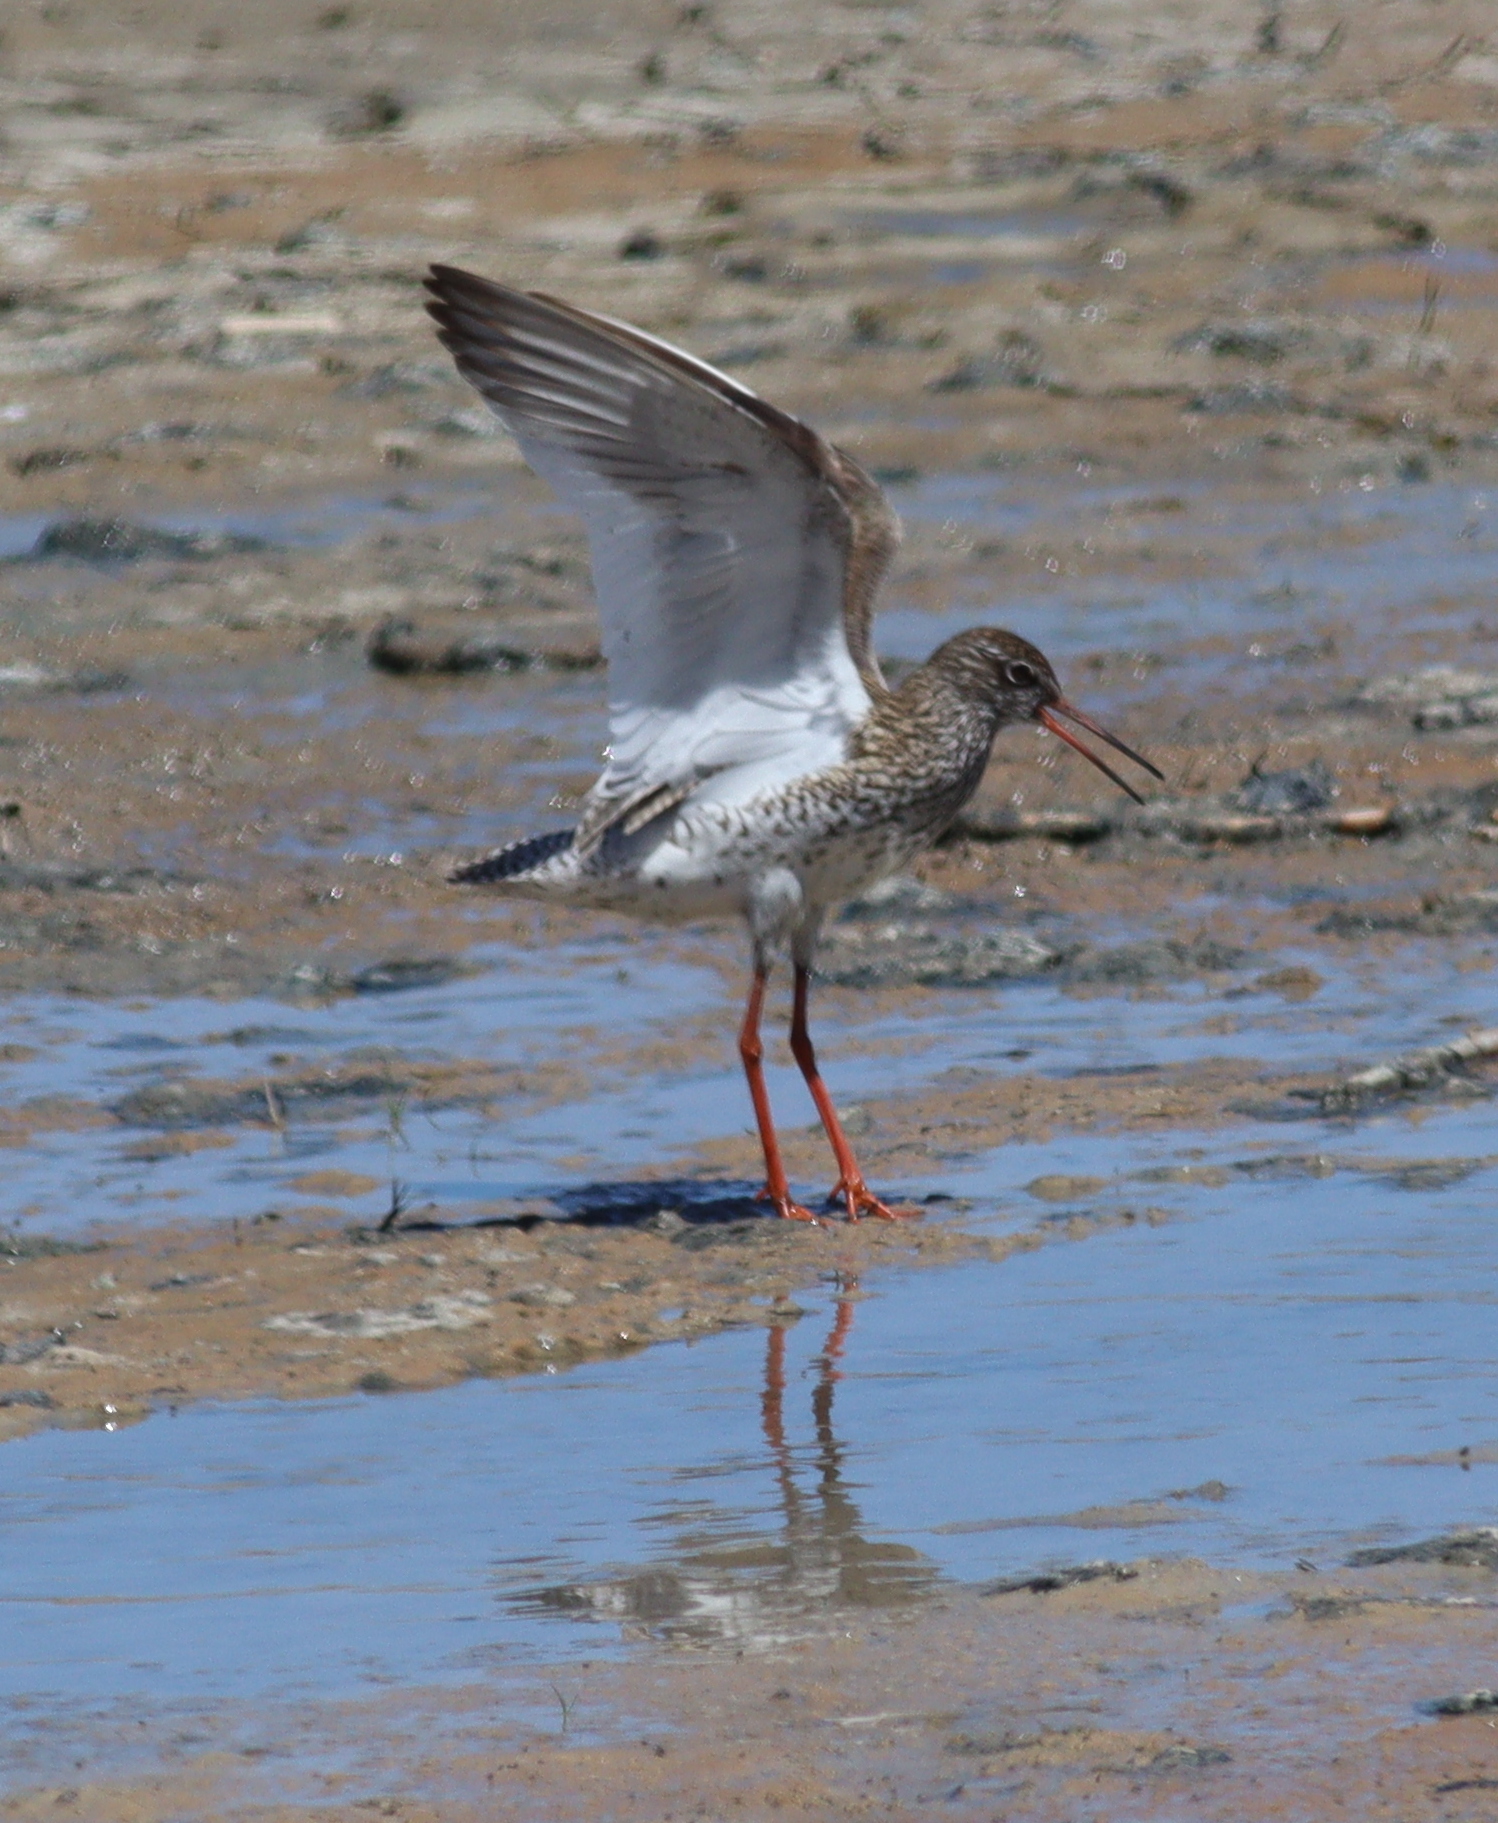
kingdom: Animalia
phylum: Chordata
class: Aves
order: Charadriiformes
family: Scolopacidae
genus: Tringa
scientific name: Tringa totanus
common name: Common redshank
